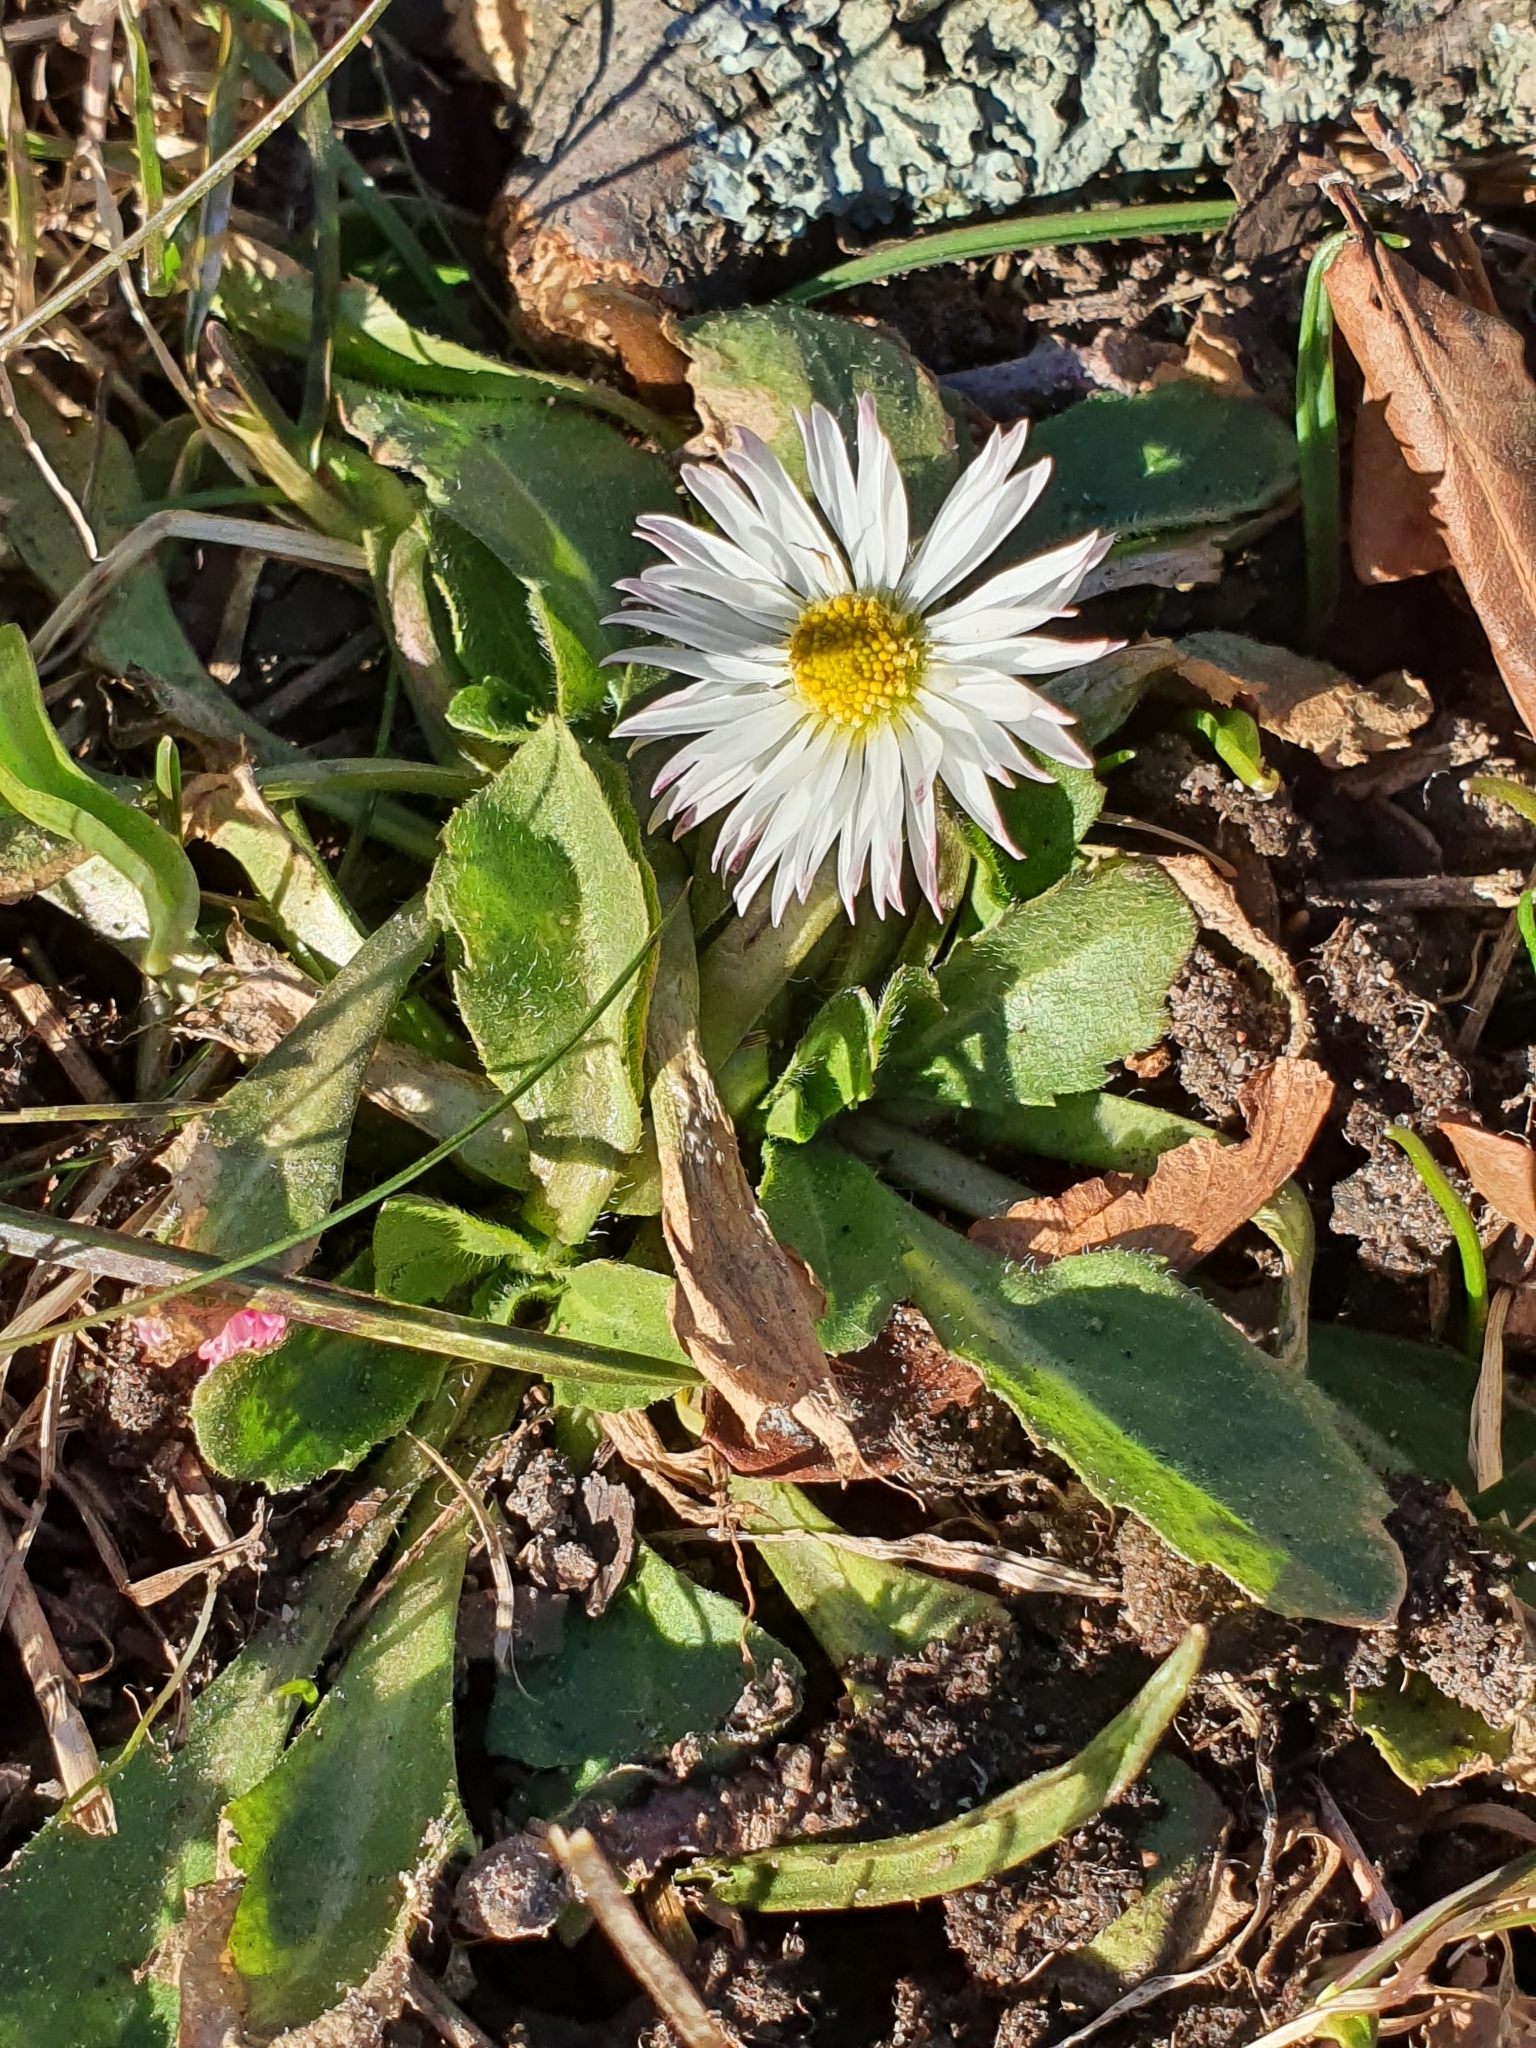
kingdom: Plantae
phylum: Tracheophyta
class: Magnoliopsida
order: Asterales
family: Asteraceae
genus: Bellis
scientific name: Bellis perennis
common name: Lawndaisy
